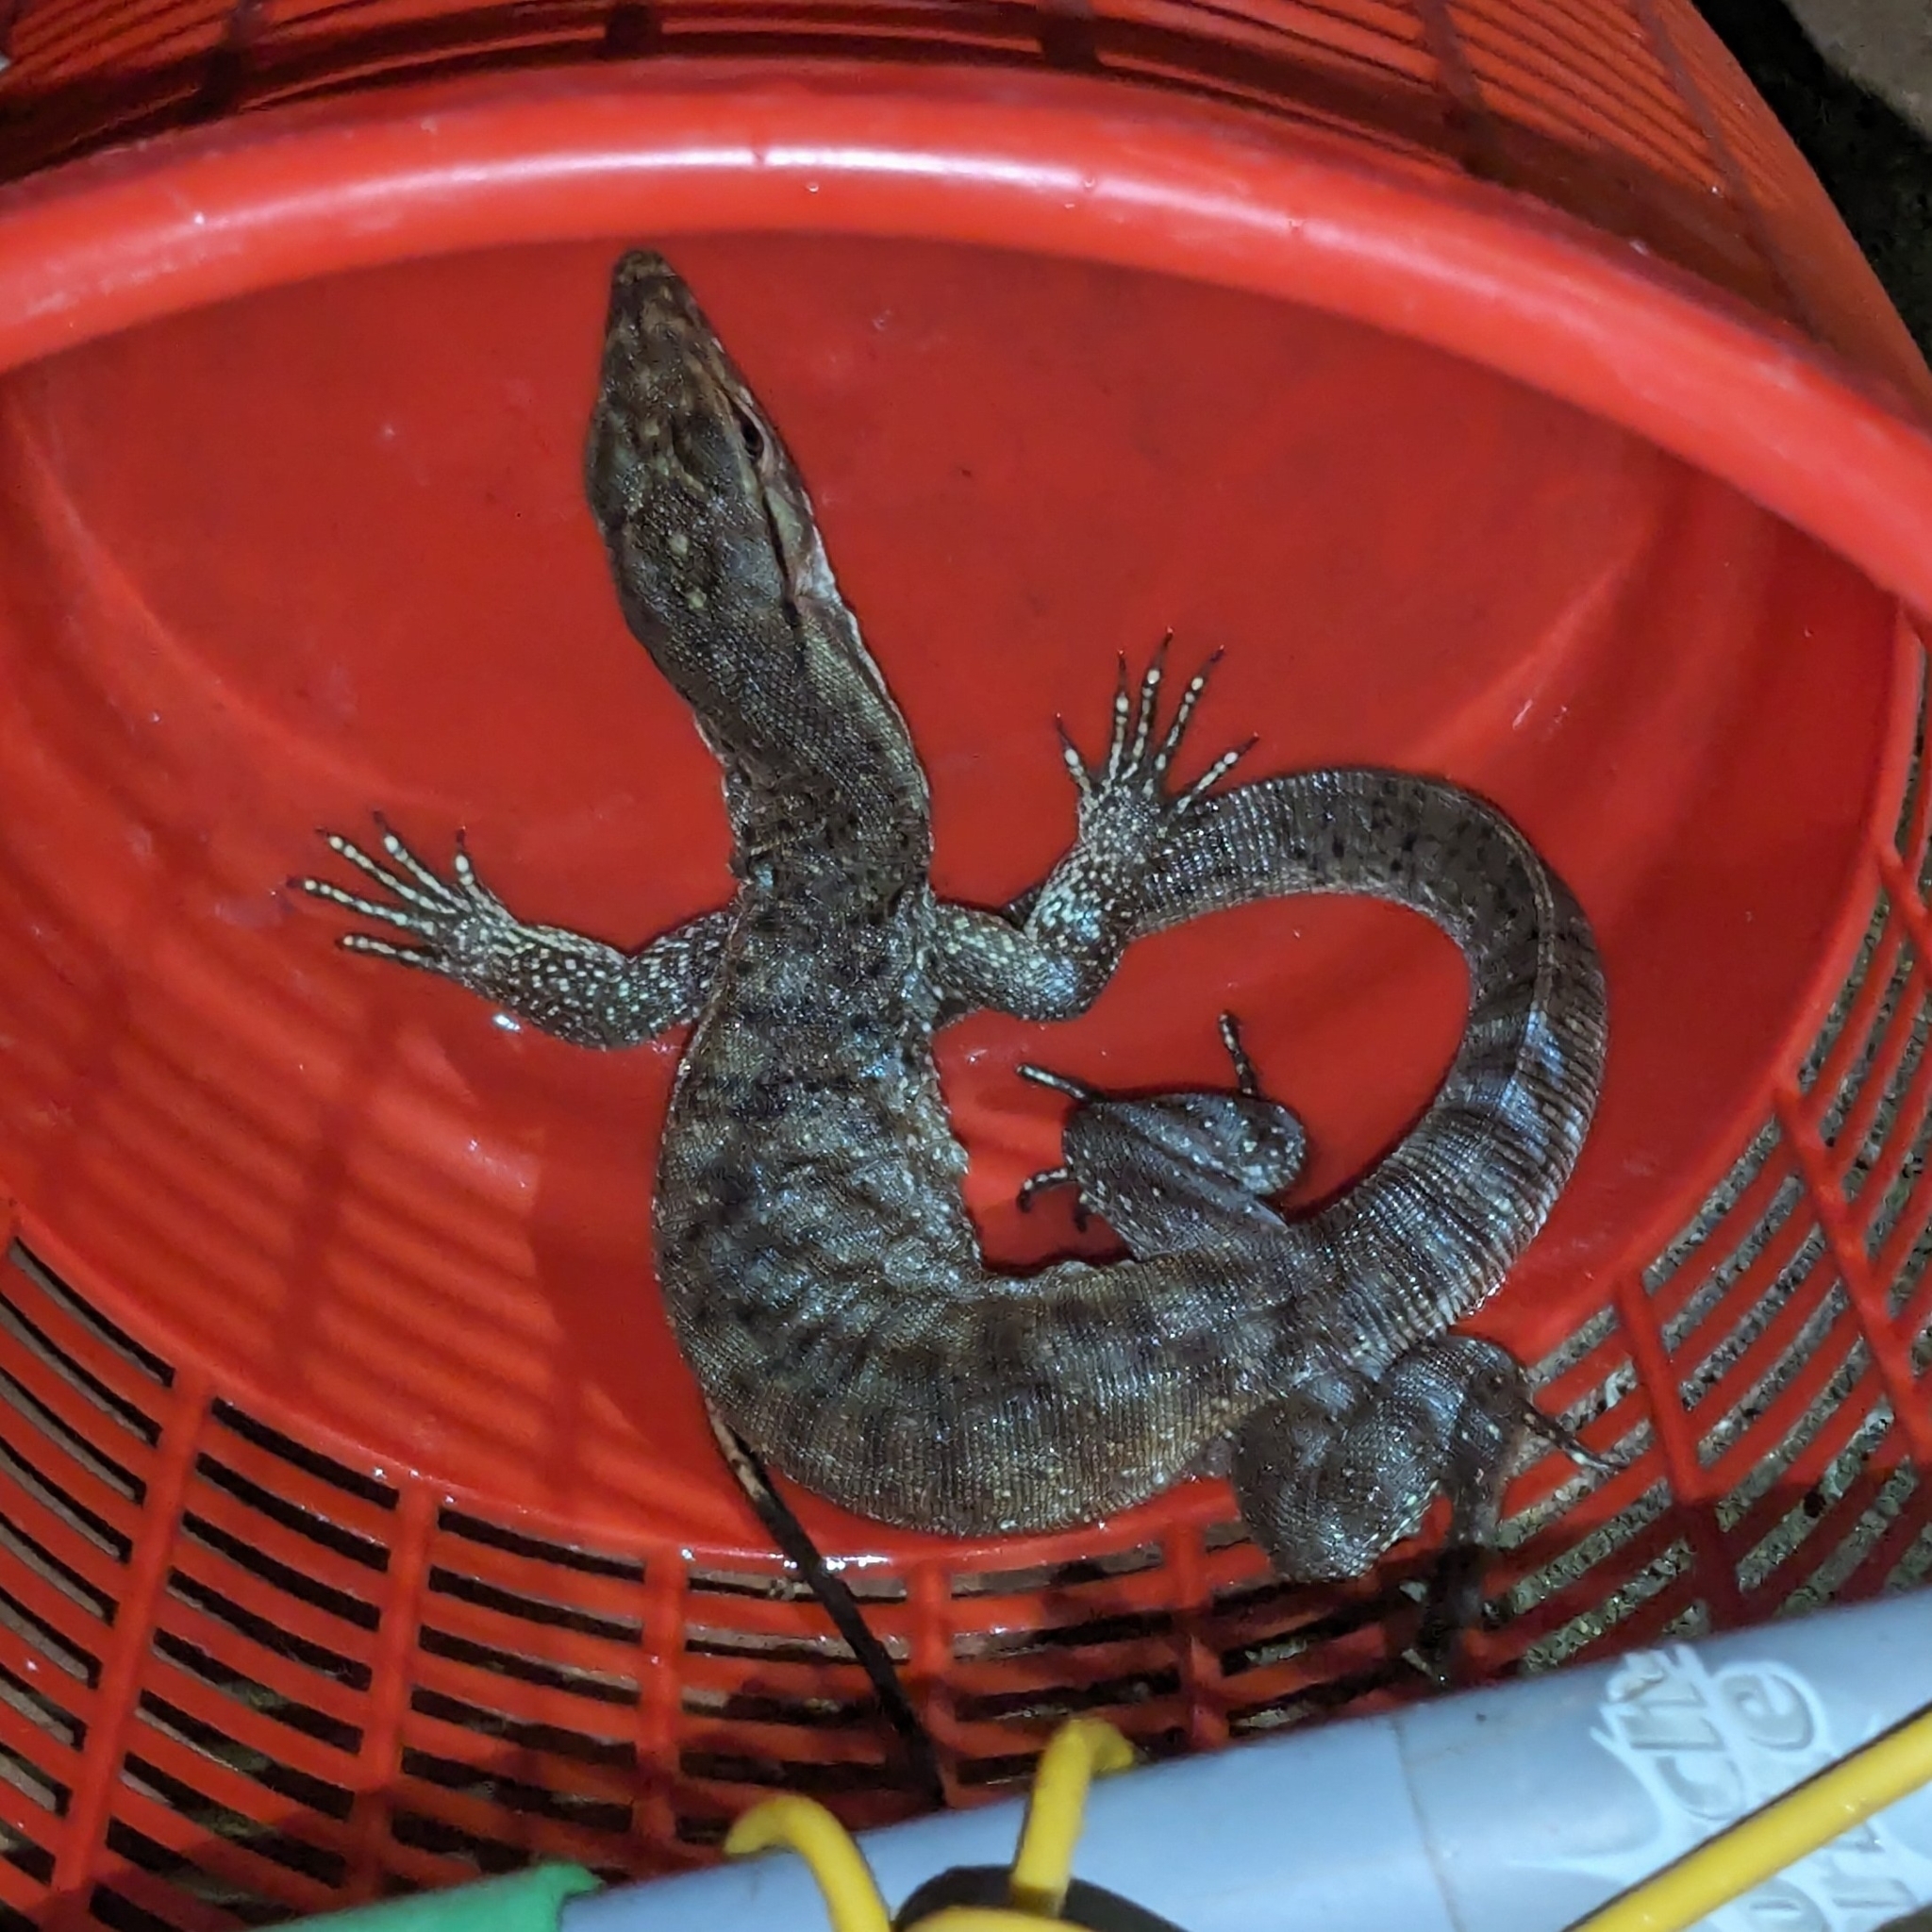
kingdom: Animalia
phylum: Chordata
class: Squamata
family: Varanidae
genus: Varanus
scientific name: Varanus bengalensis
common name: Bengal monitor
